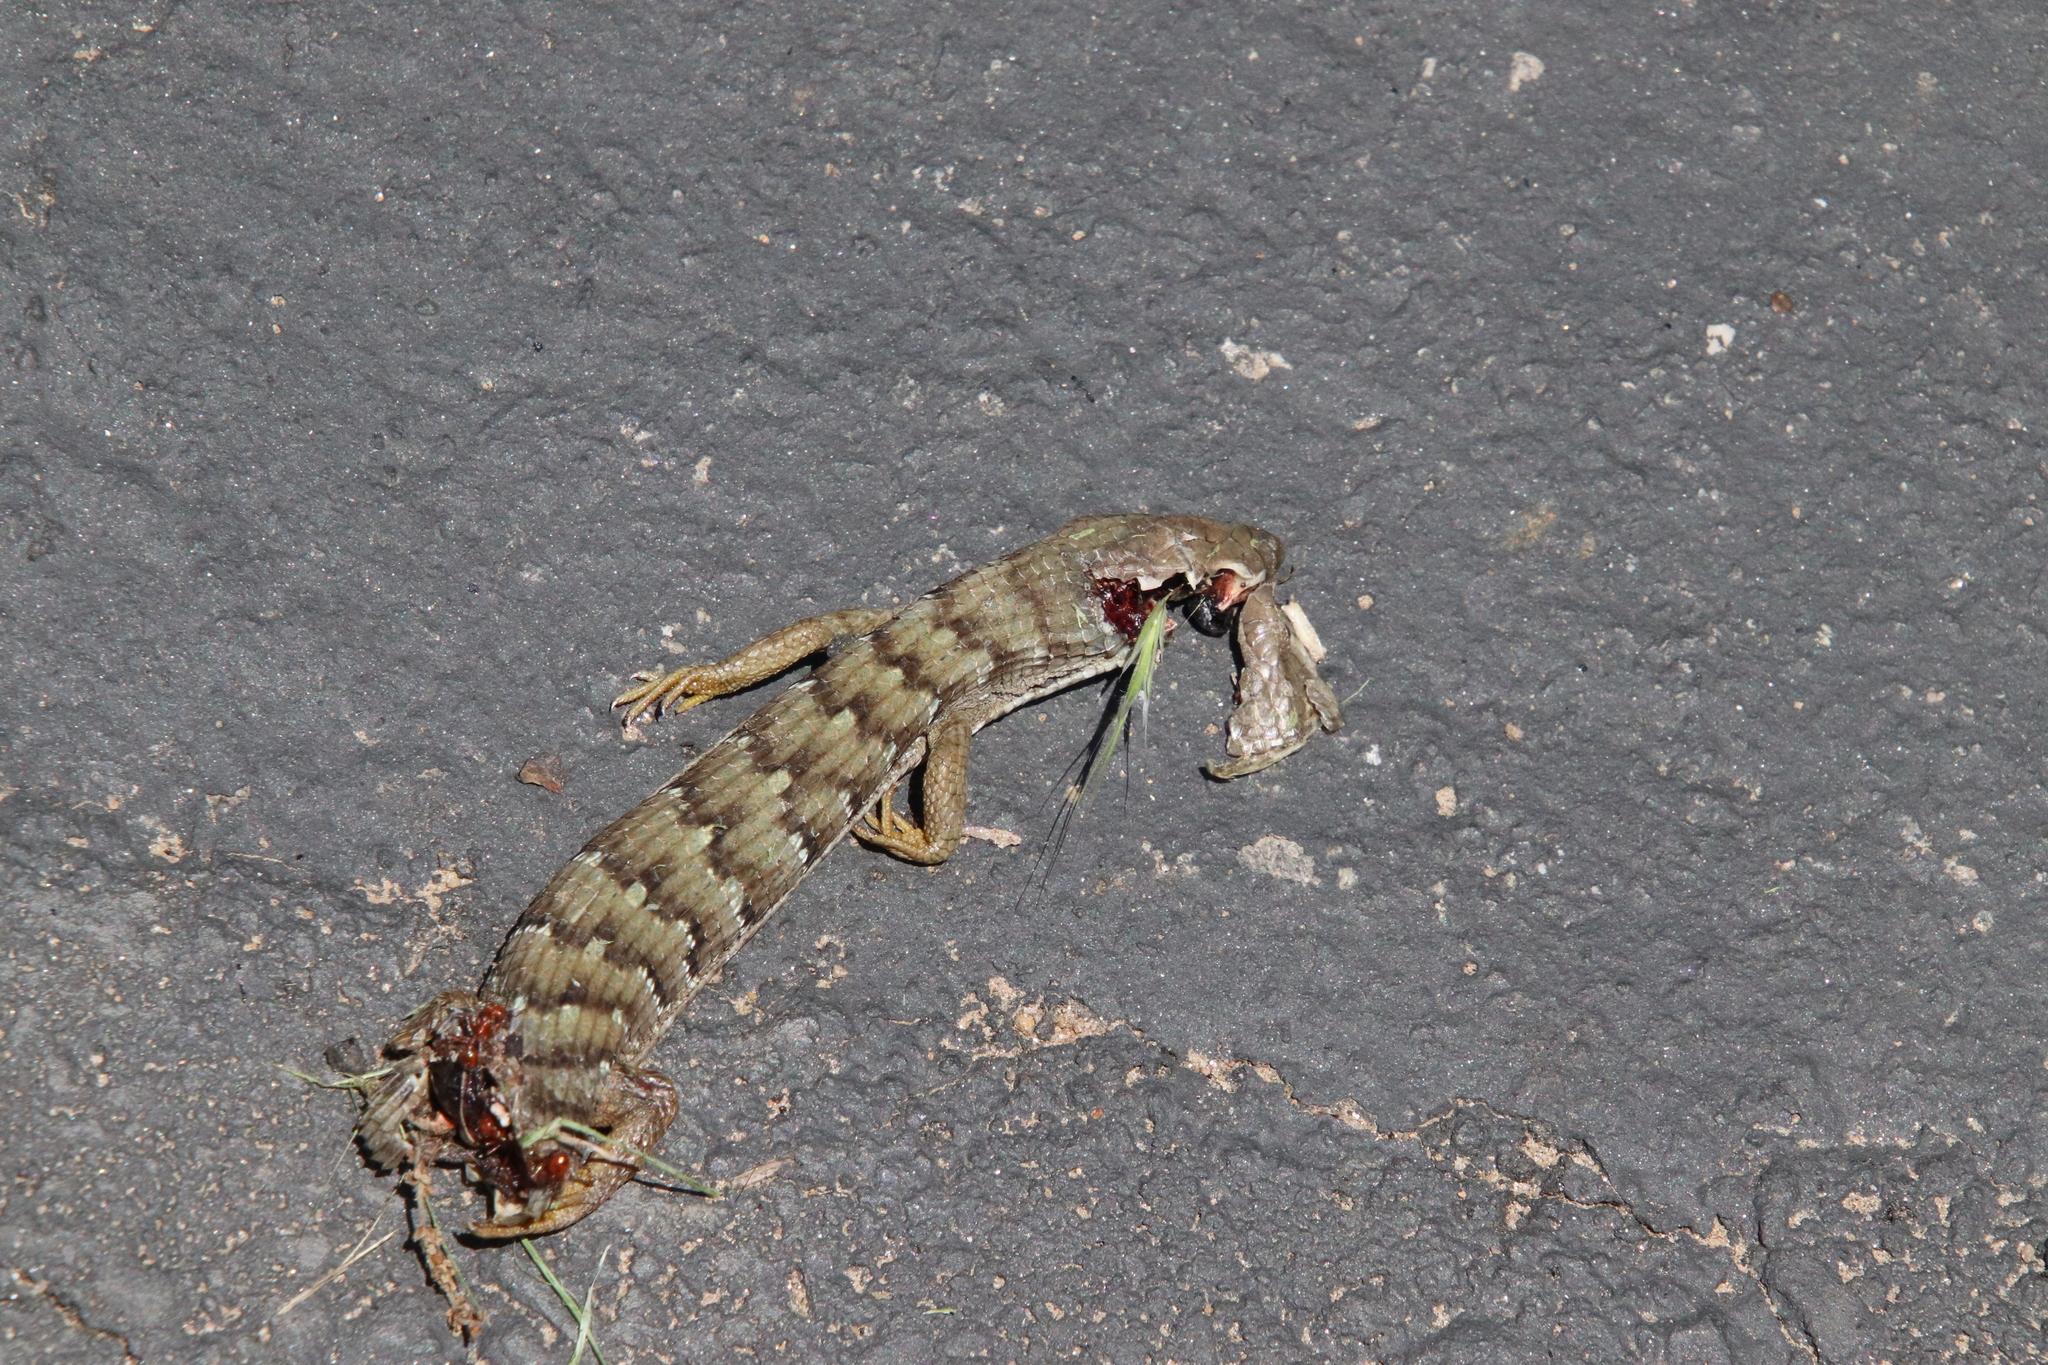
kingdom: Animalia
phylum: Chordata
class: Squamata
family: Anguidae
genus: Elgaria
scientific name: Elgaria multicarinata
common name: Southern alligator lizard
